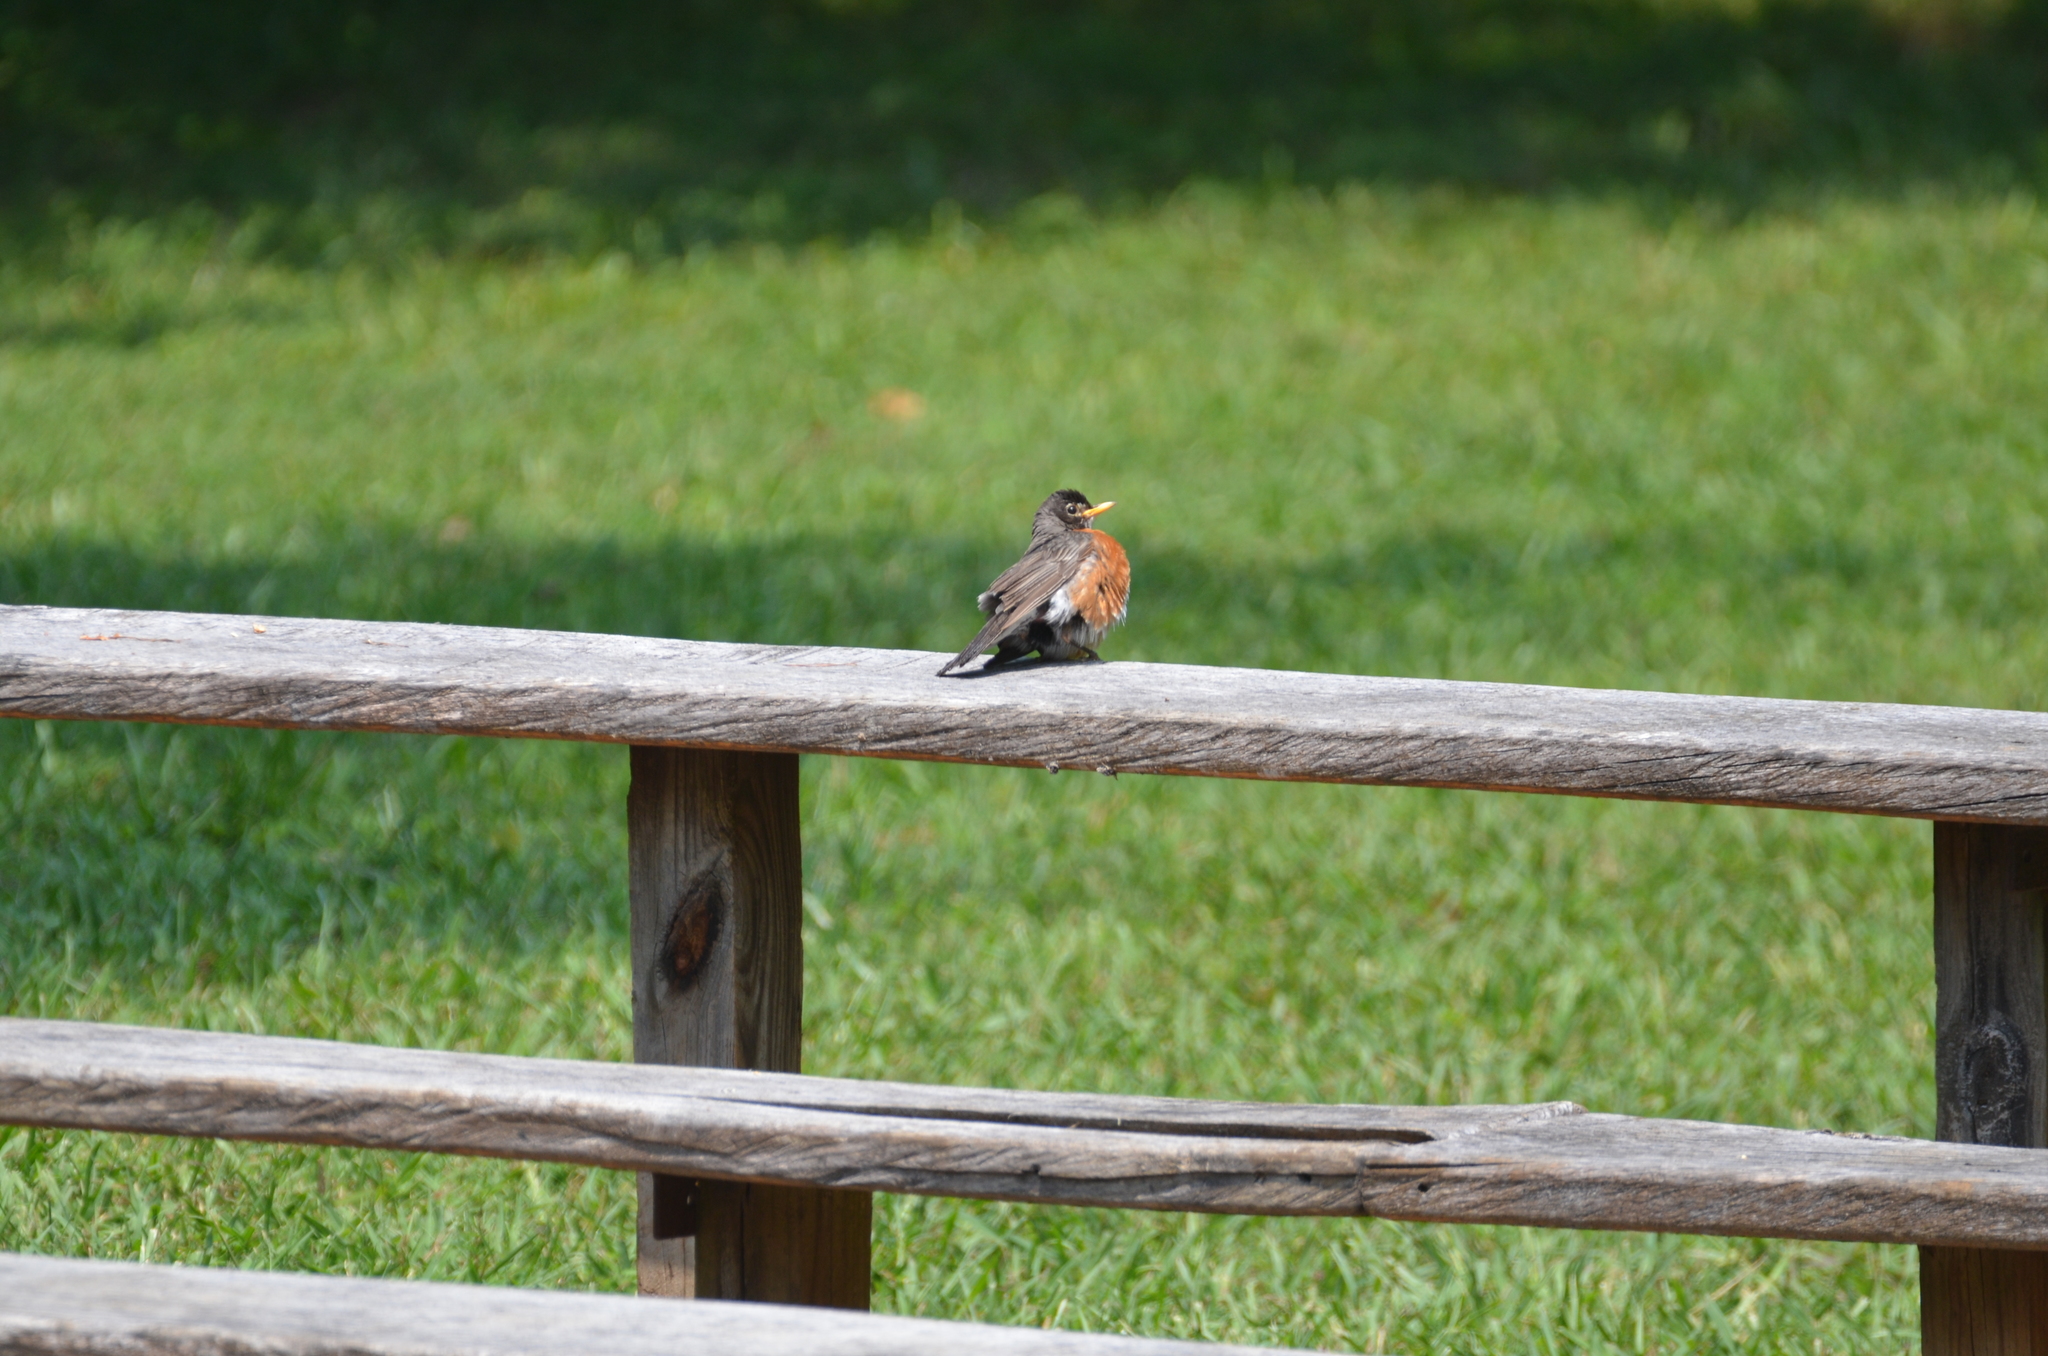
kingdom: Animalia
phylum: Chordata
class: Aves
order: Passeriformes
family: Turdidae
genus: Turdus
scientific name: Turdus migratorius
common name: American robin
